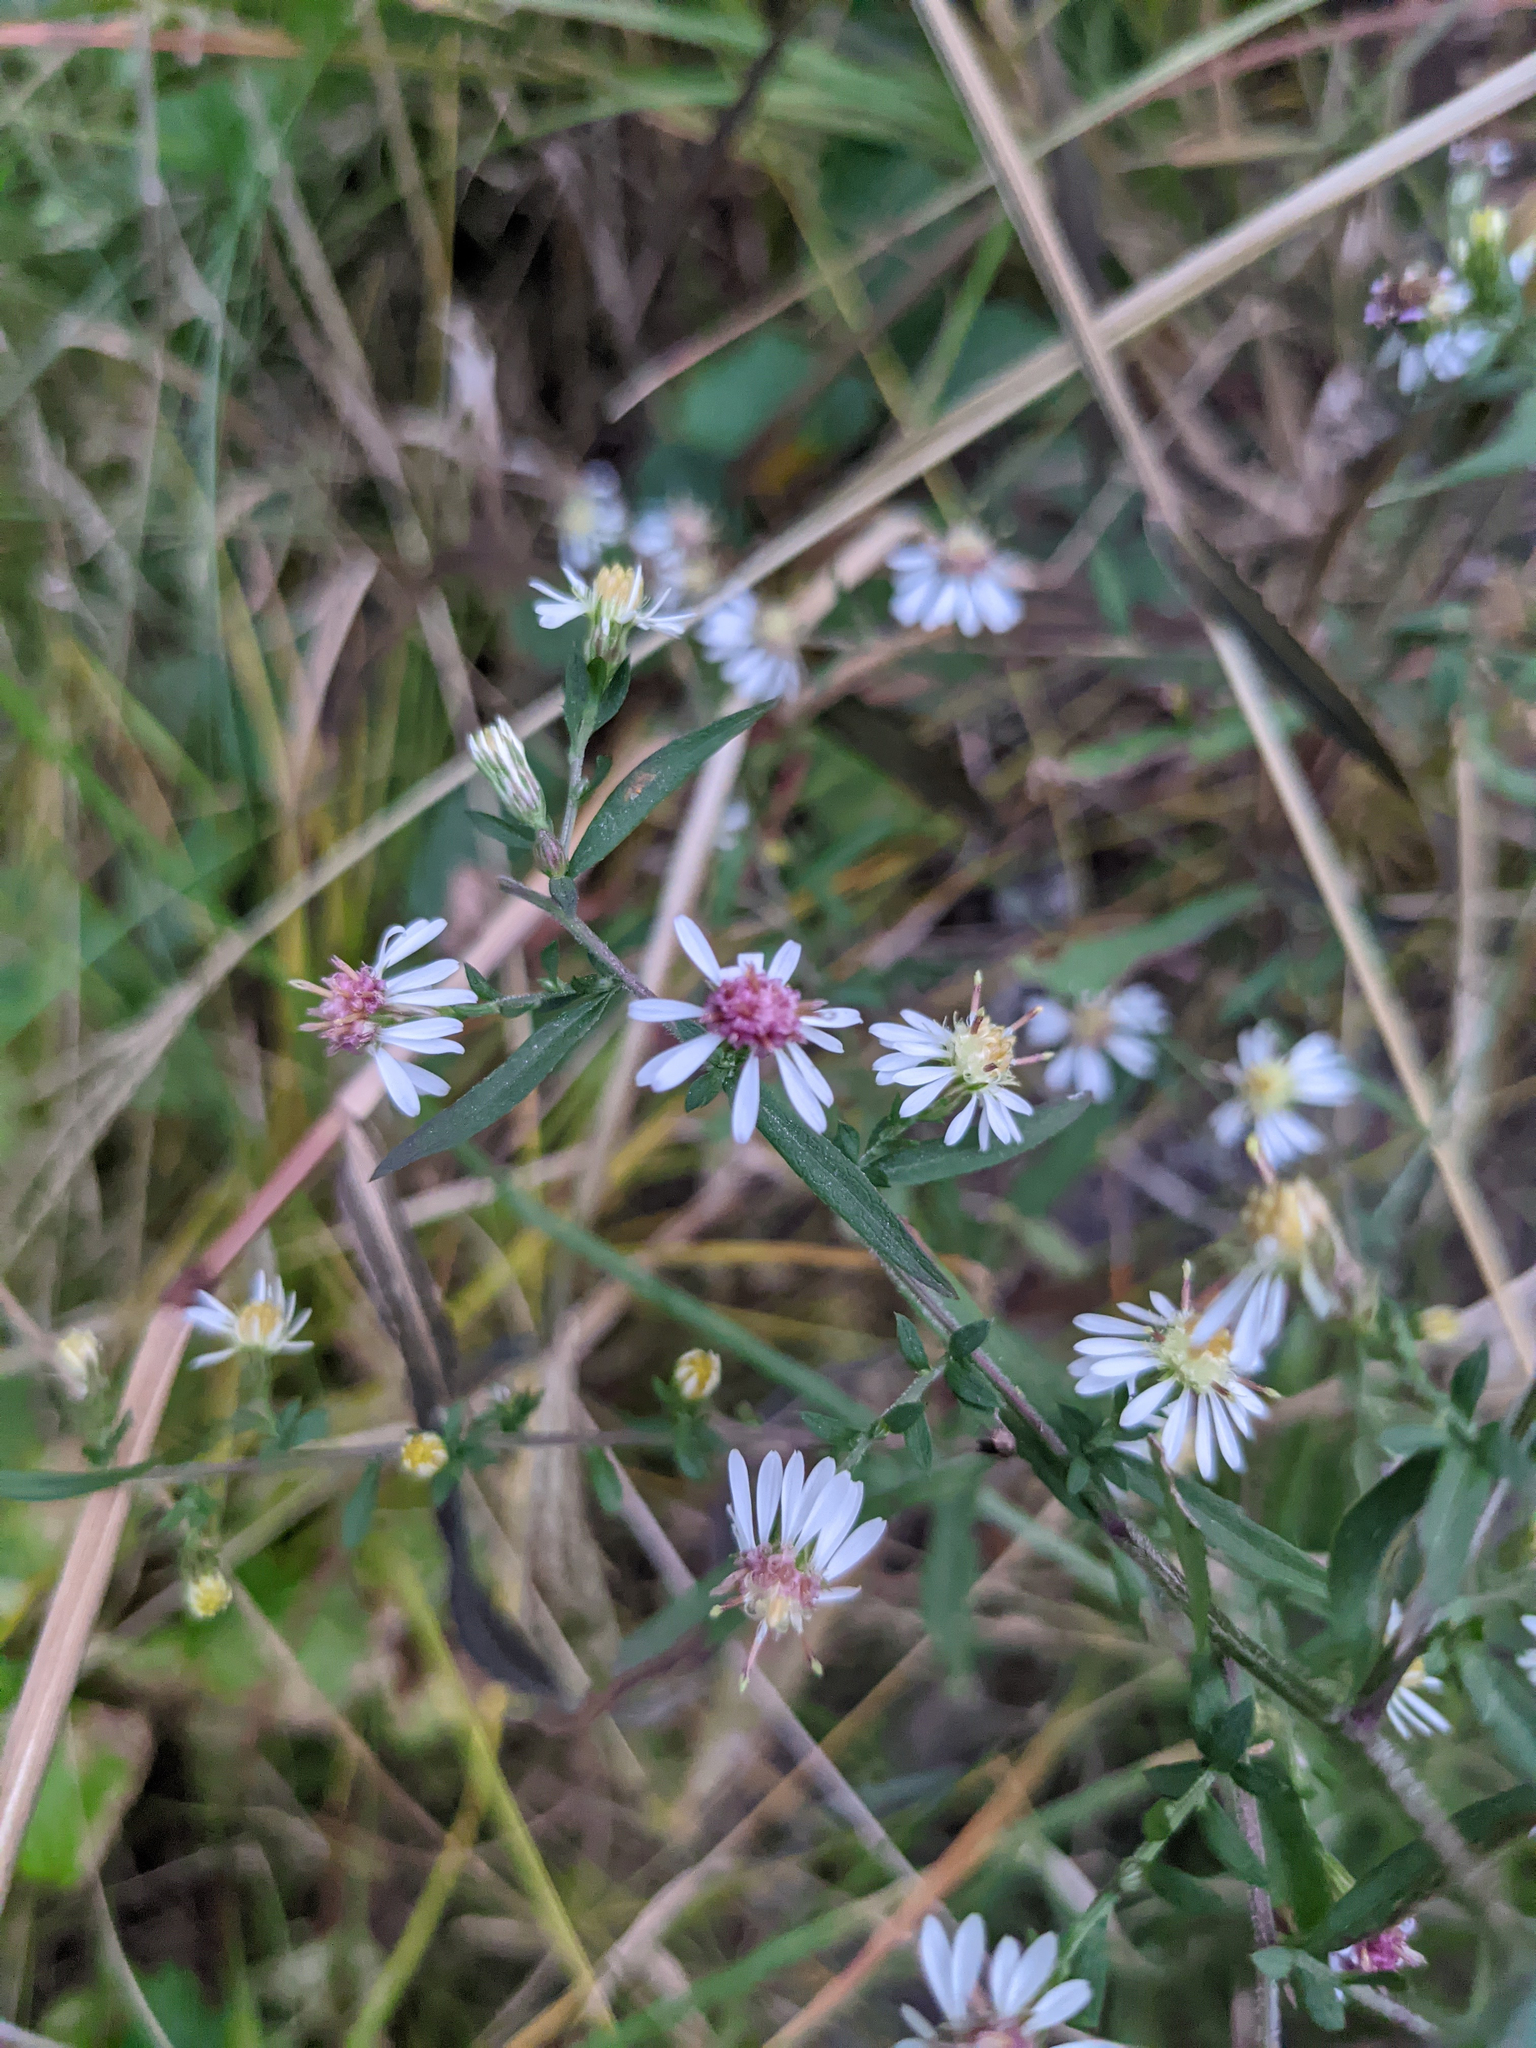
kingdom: Plantae
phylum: Tracheophyta
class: Magnoliopsida
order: Asterales
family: Asteraceae
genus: Symphyotrichum
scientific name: Symphyotrichum lateriflorum
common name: Calico aster
